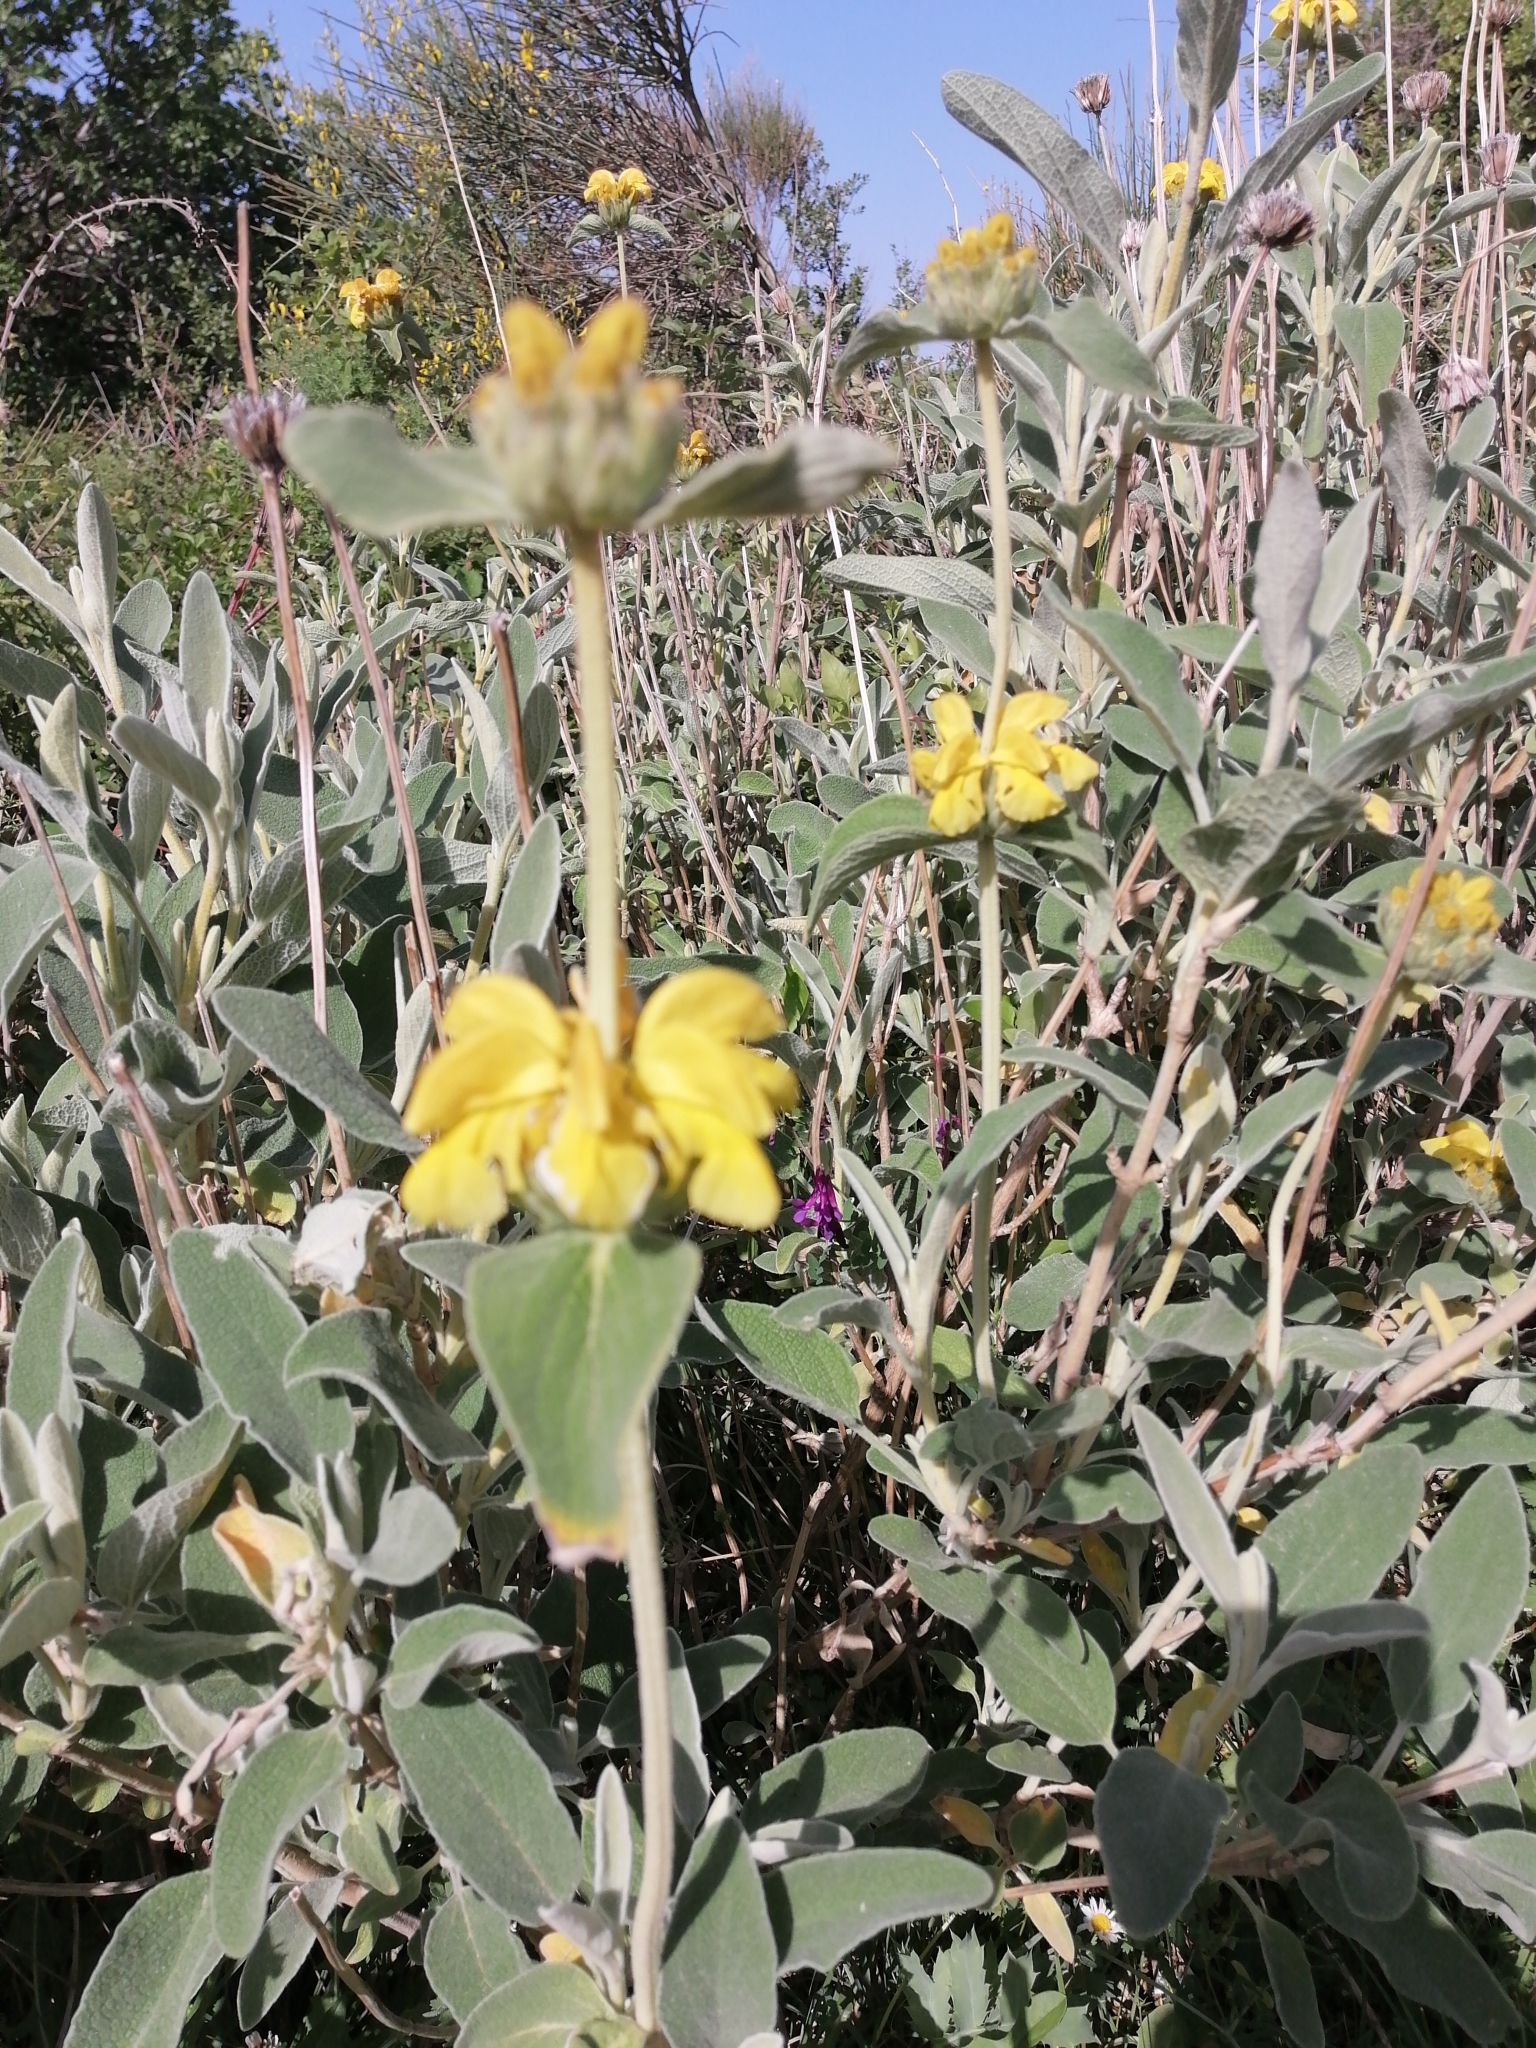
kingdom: Plantae
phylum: Tracheophyta
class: Magnoliopsida
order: Lamiales
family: Lamiaceae
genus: Phlomis
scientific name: Phlomis fruticosa
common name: Jerusalem sage
